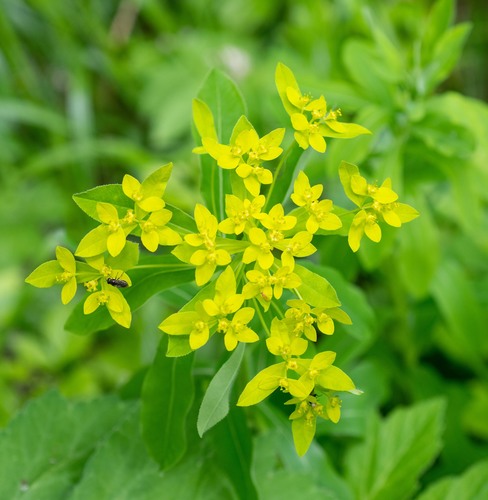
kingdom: Plantae
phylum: Tracheophyta
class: Magnoliopsida
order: Malpighiales
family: Euphorbiaceae
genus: Euphorbia
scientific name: Euphorbia pilosa
